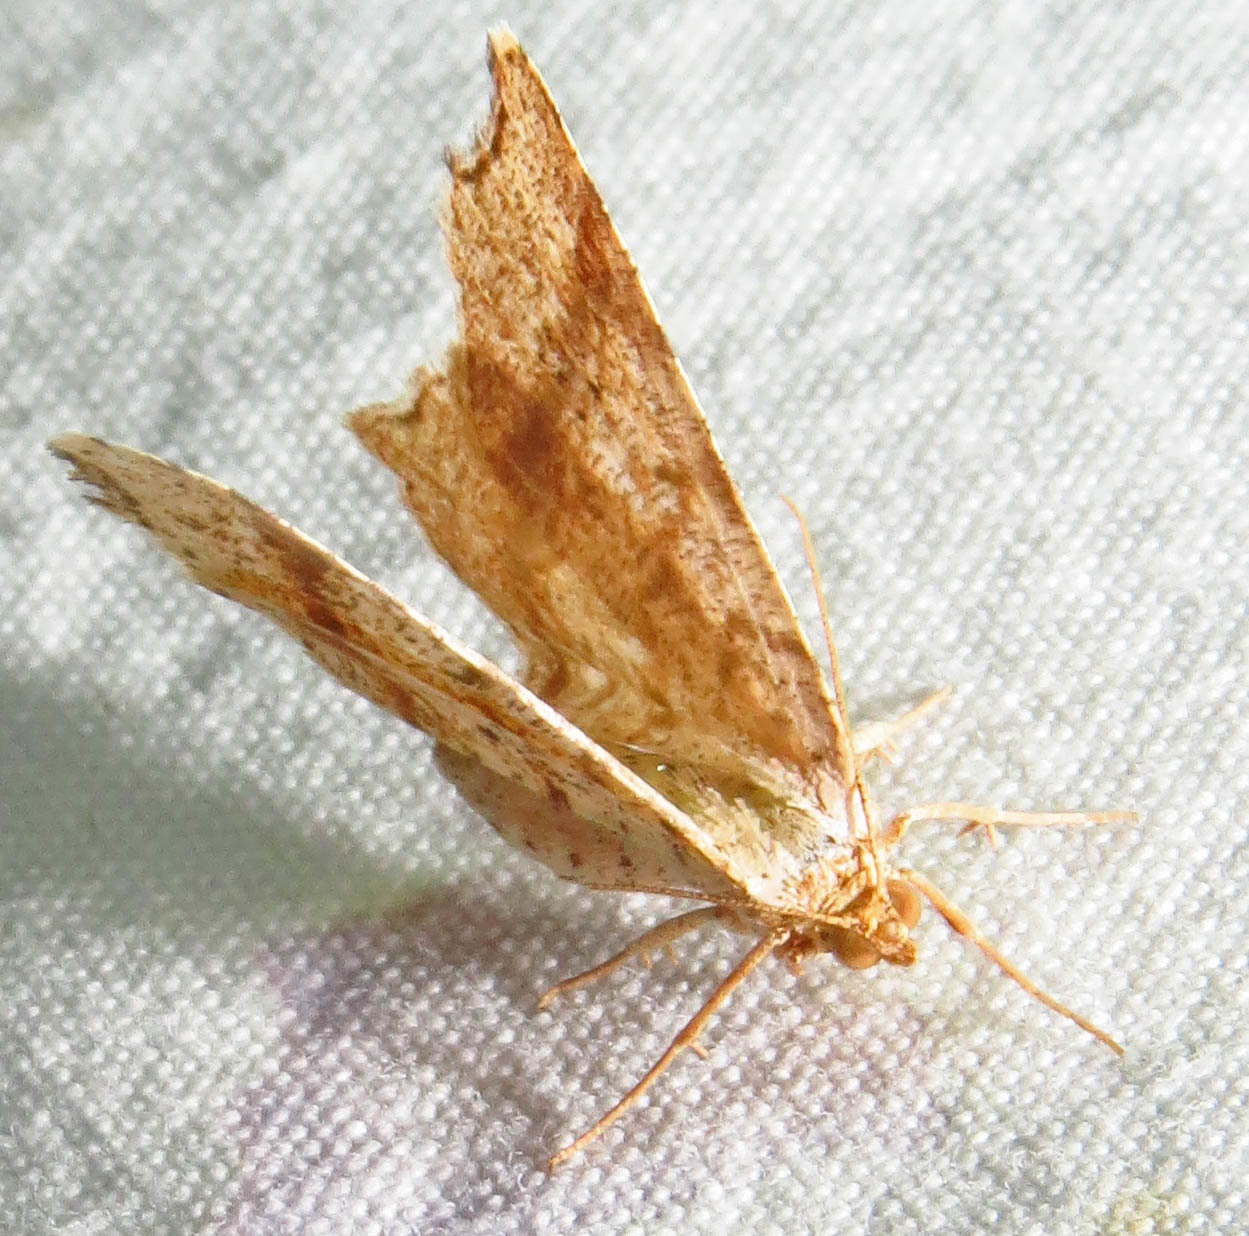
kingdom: Animalia
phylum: Arthropoda
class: Insecta
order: Lepidoptera
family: Geometridae
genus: Macaria
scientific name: Macaria promiscuata
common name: Promiscuous angle
